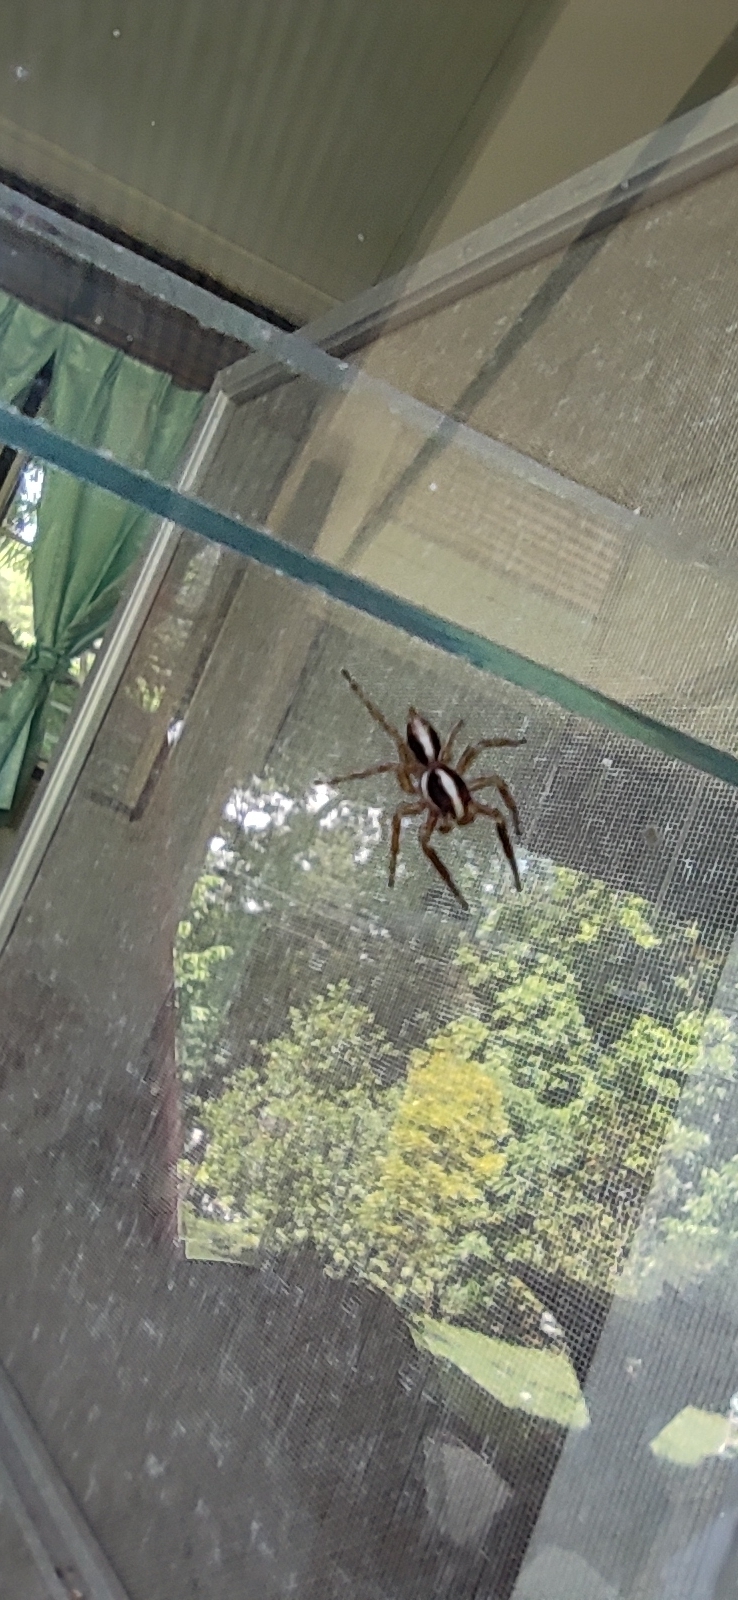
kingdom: Animalia
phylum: Arthropoda
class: Arachnida
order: Araneae
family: Salticidae
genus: Plexippus
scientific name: Plexippus paykulli
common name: Pantropical jumper
